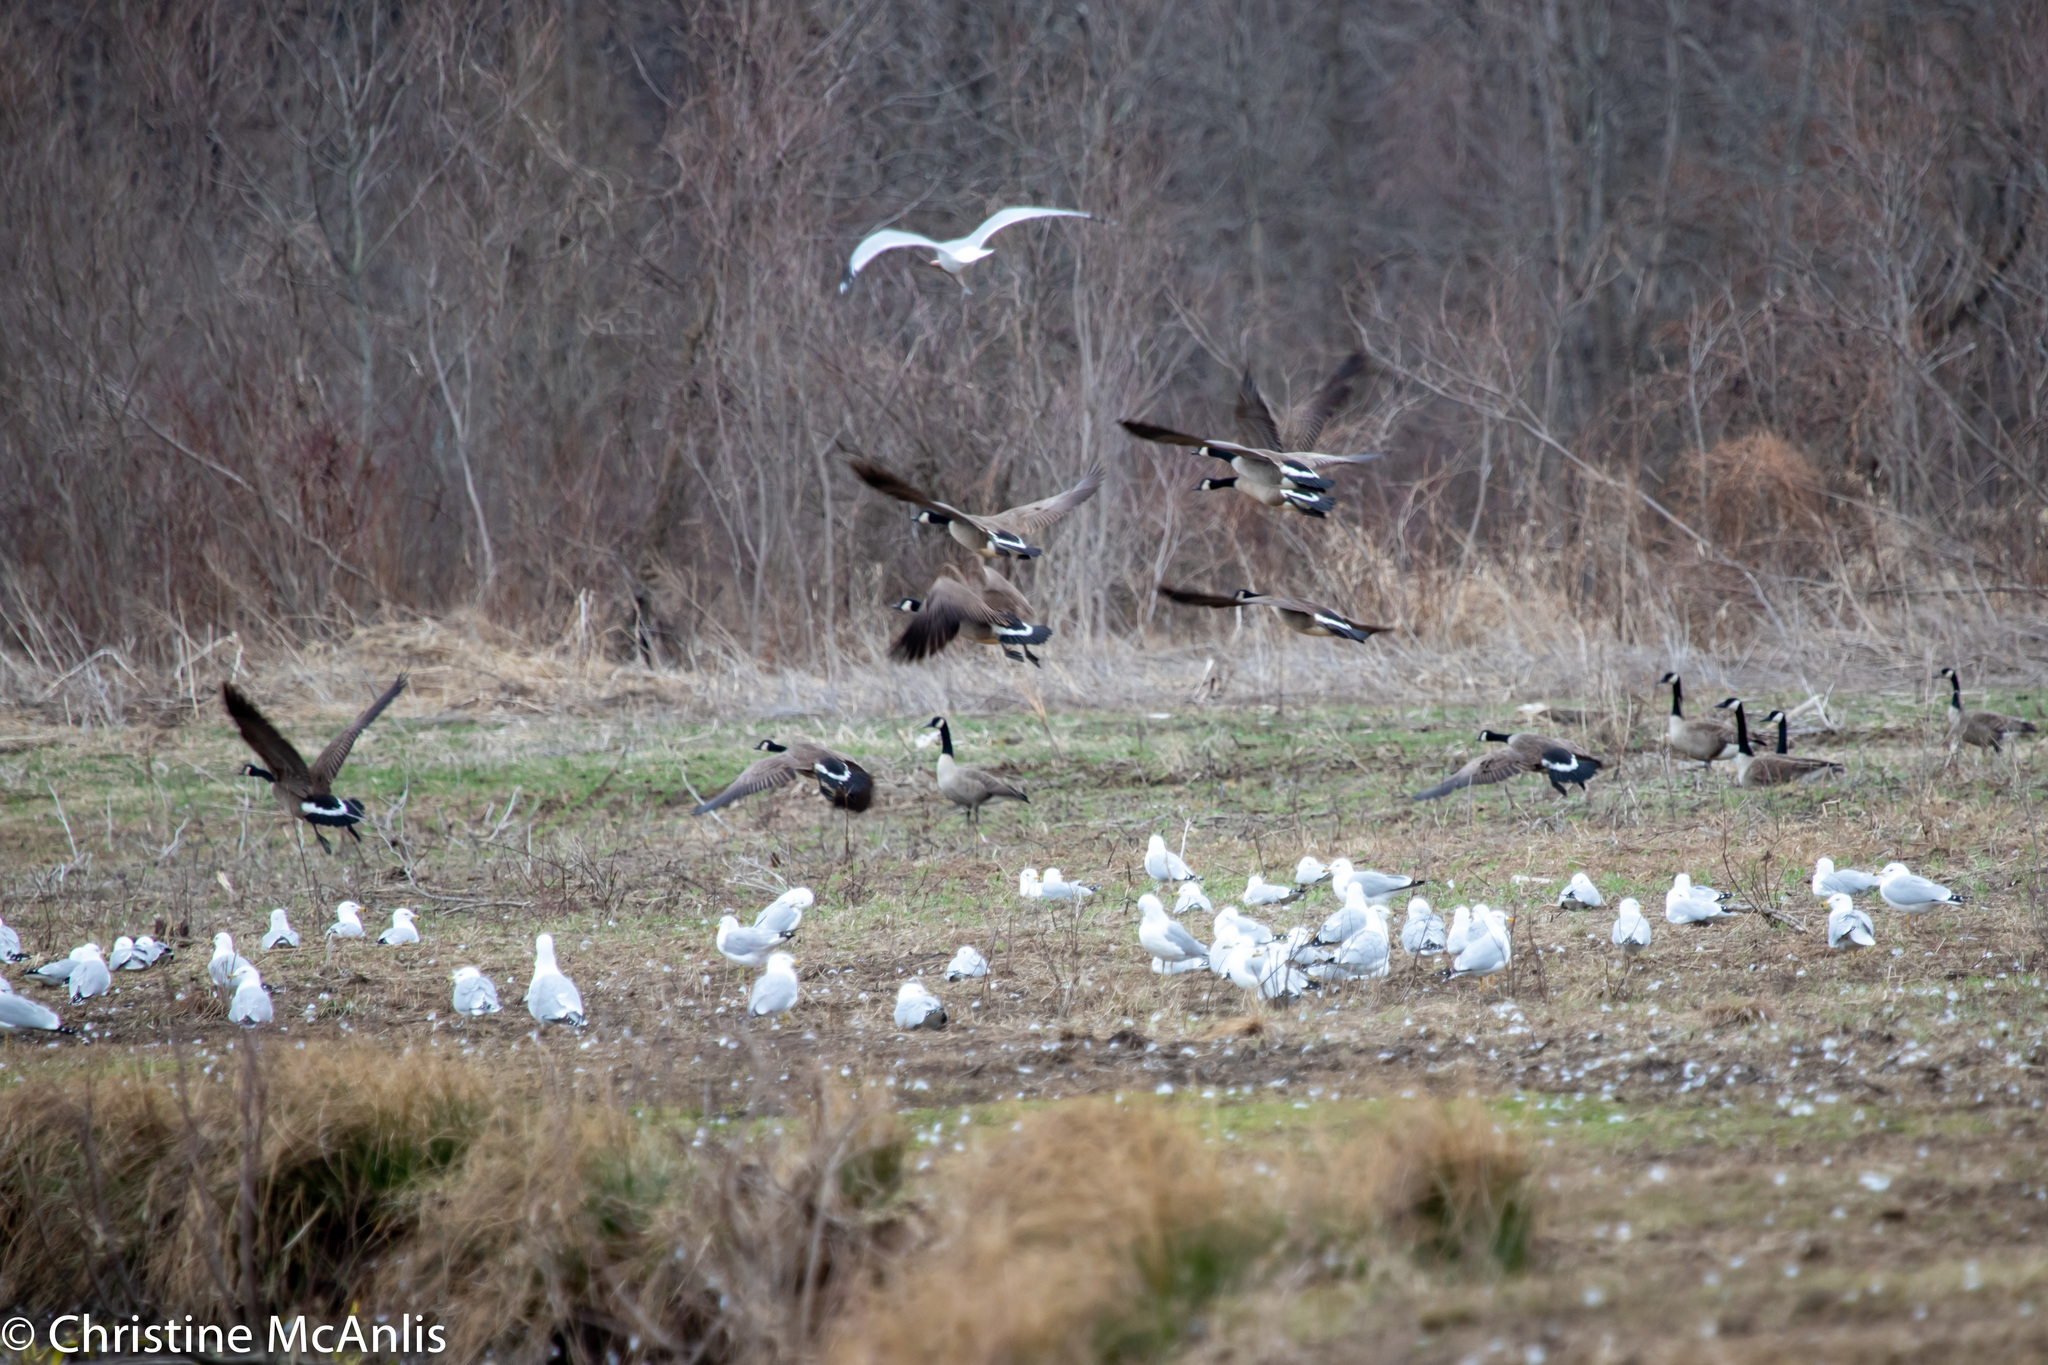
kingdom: Animalia
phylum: Chordata
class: Aves
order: Charadriiformes
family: Laridae
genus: Larus
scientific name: Larus delawarensis
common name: Ring-billed gull
